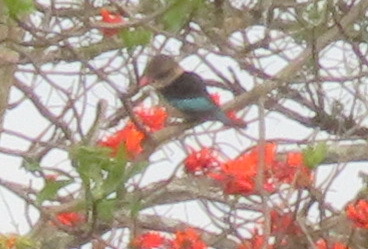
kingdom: Animalia
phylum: Chordata
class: Aves
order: Coraciiformes
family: Alcedinidae
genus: Halcyon
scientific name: Halcyon albiventris
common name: Brown-hooded kingfisher
